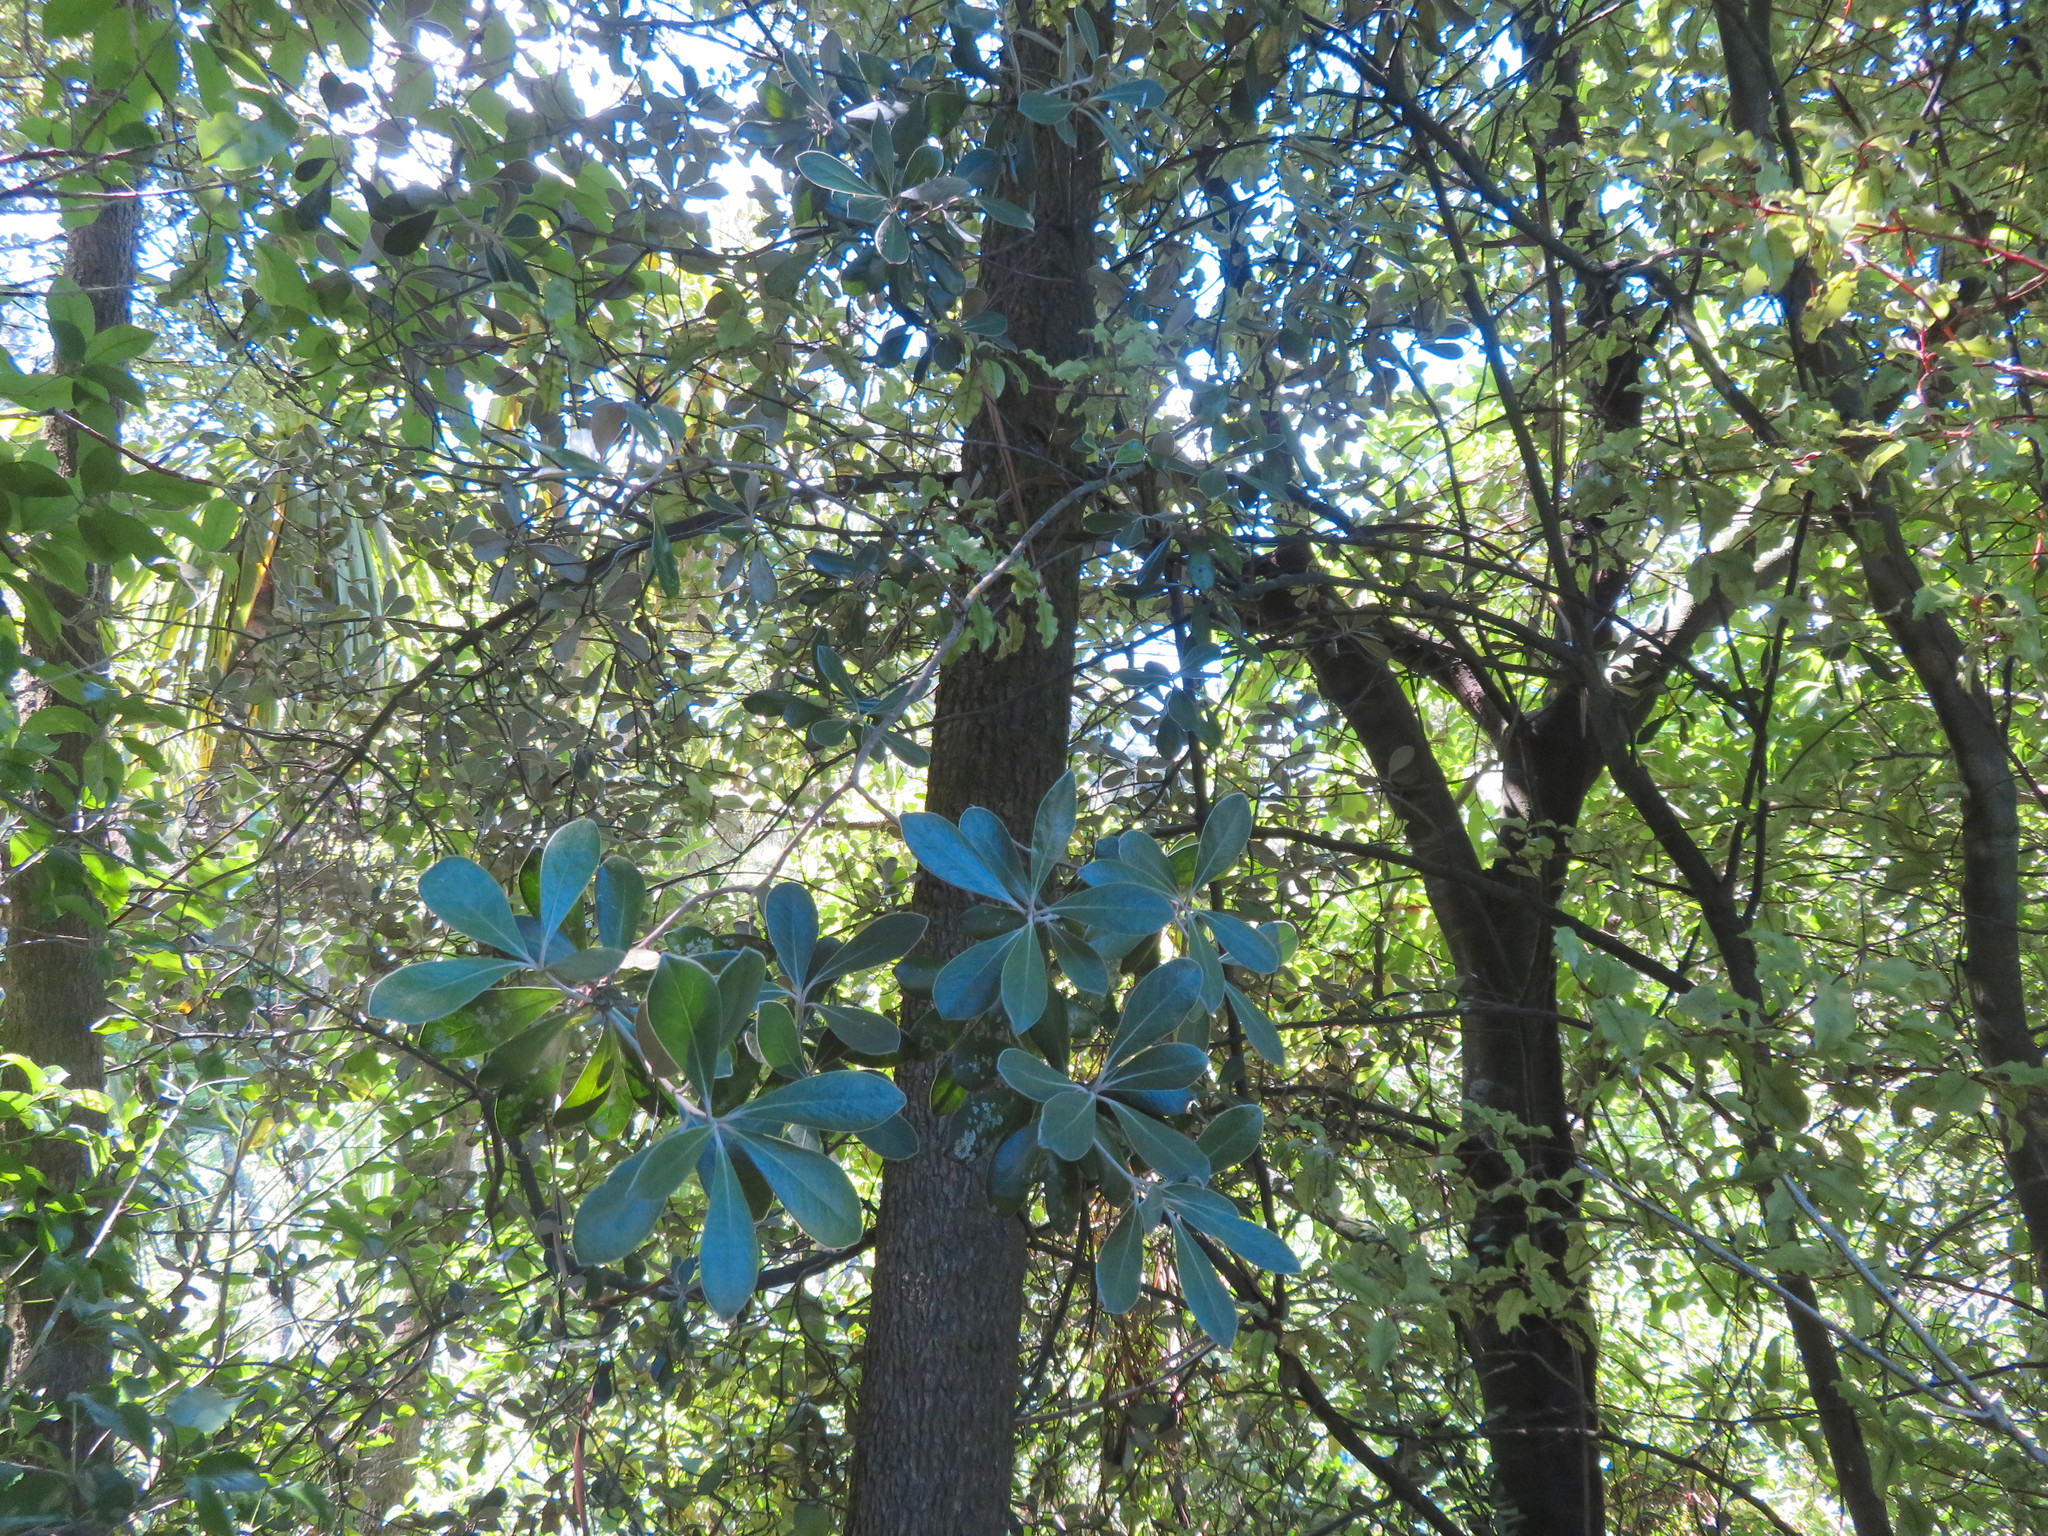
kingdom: Plantae
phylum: Tracheophyta
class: Magnoliopsida
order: Apiales
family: Pittosporaceae
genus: Pittosporum
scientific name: Pittosporum crassifolium
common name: Karo
